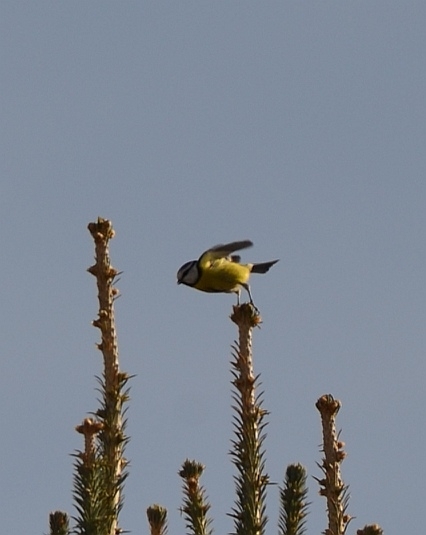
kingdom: Animalia
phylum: Chordata
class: Aves
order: Passeriformes
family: Paridae
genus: Cyanistes
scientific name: Cyanistes caeruleus
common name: Eurasian blue tit
